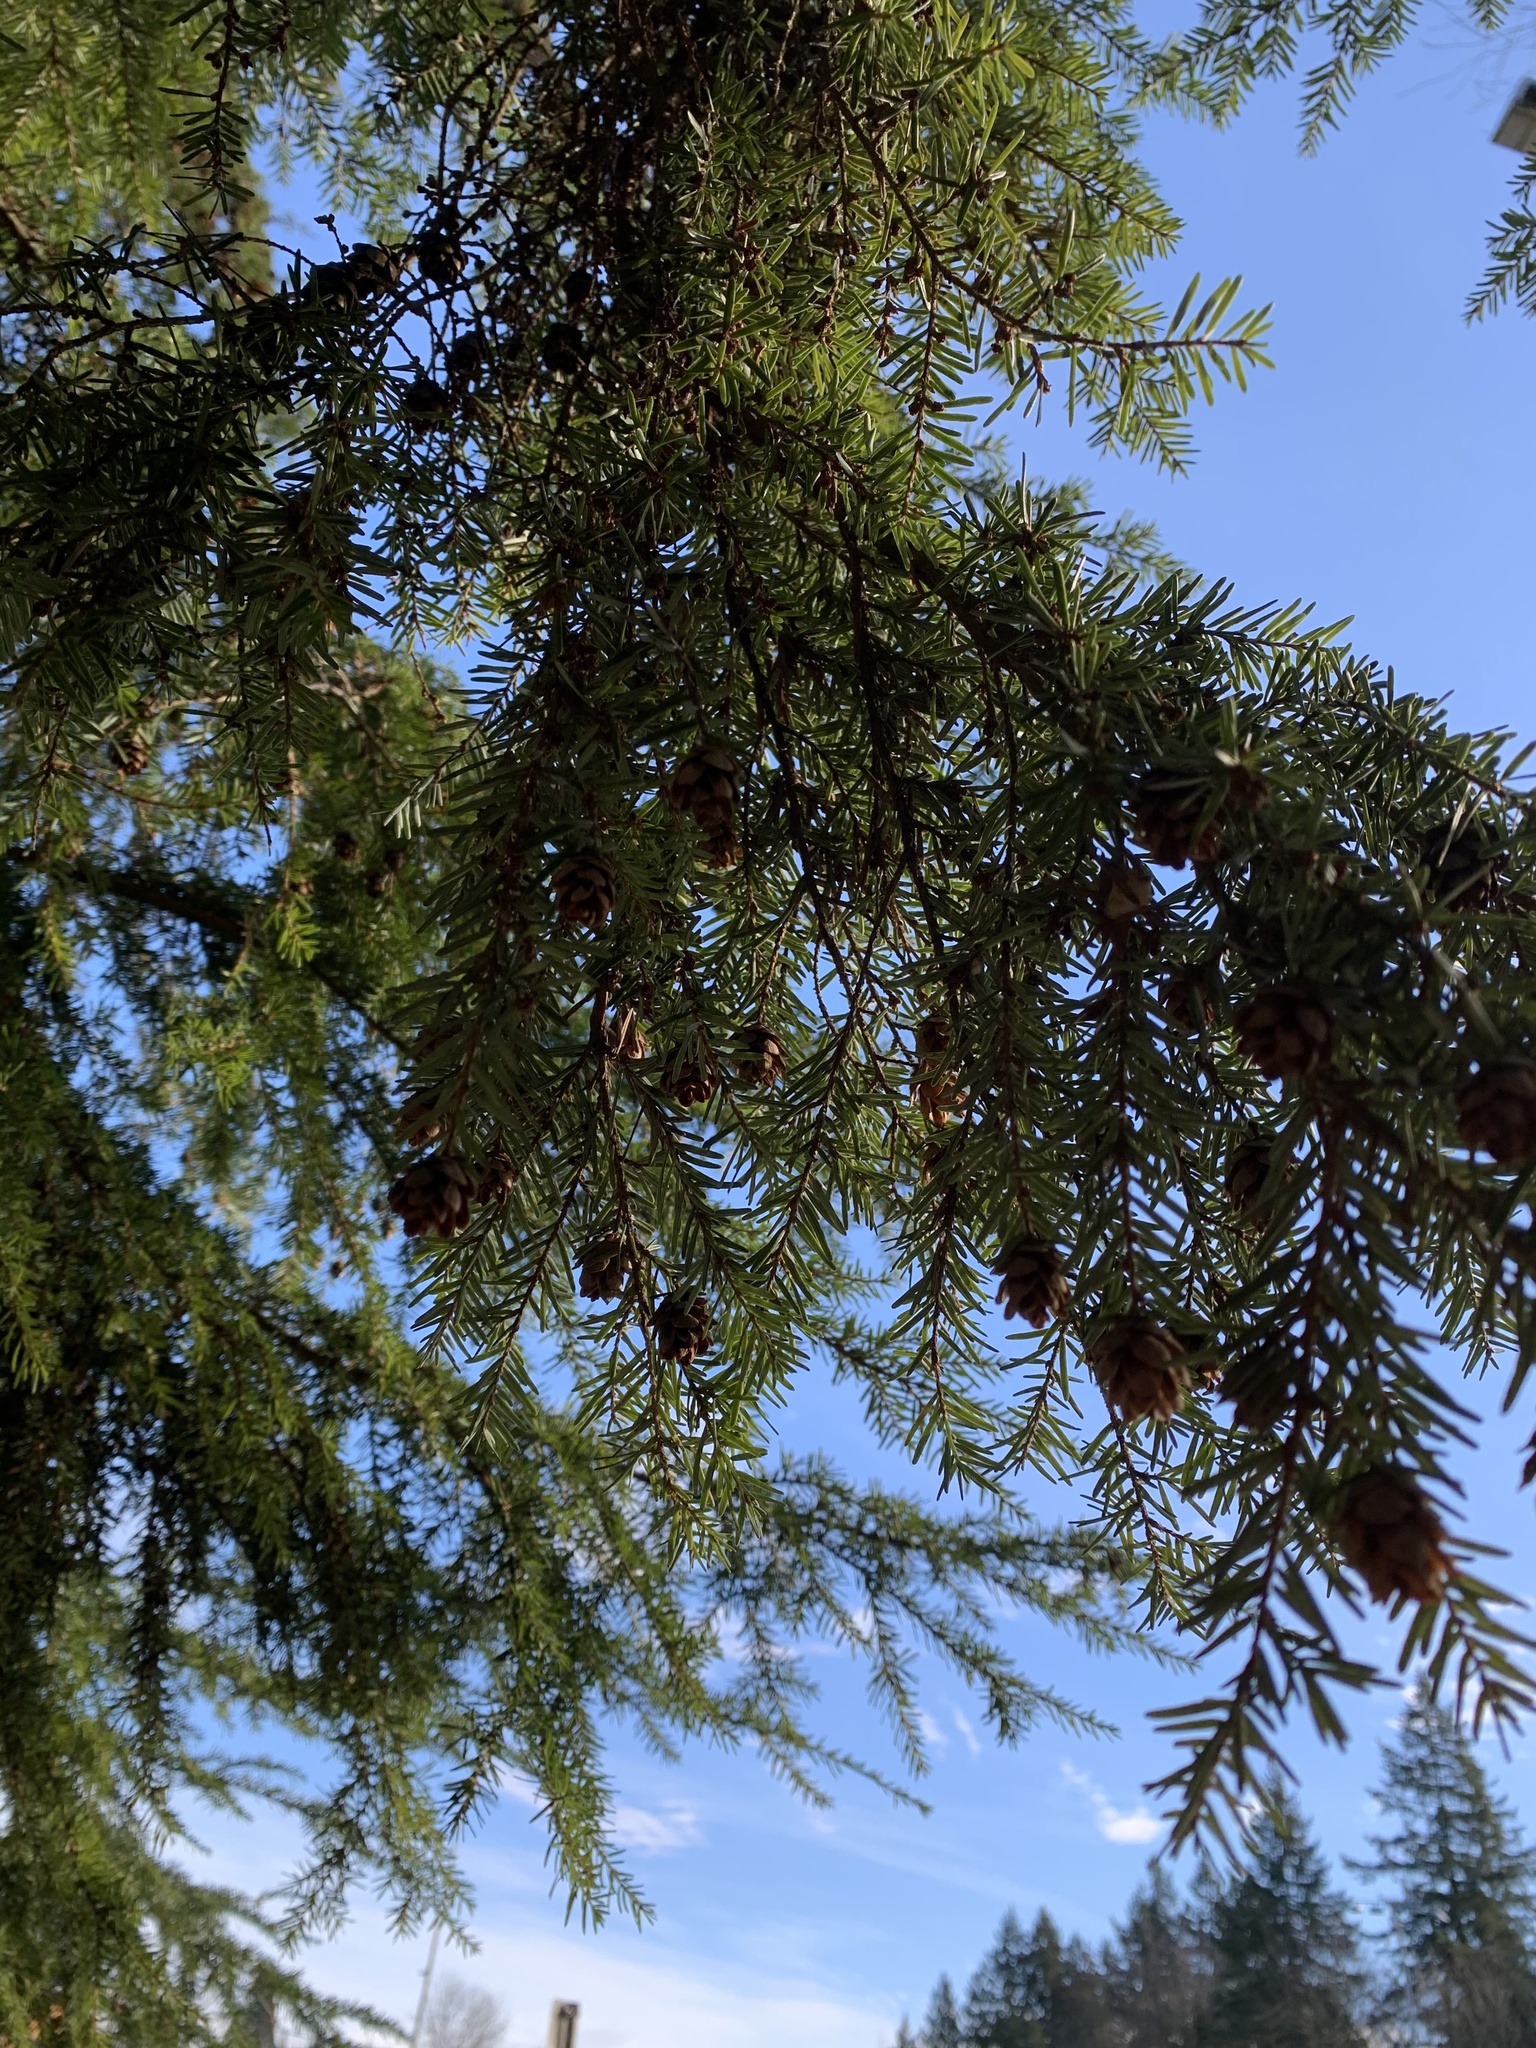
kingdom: Plantae
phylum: Tracheophyta
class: Pinopsida
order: Pinales
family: Pinaceae
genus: Tsuga
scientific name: Tsuga heterophylla
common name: Western hemlock
